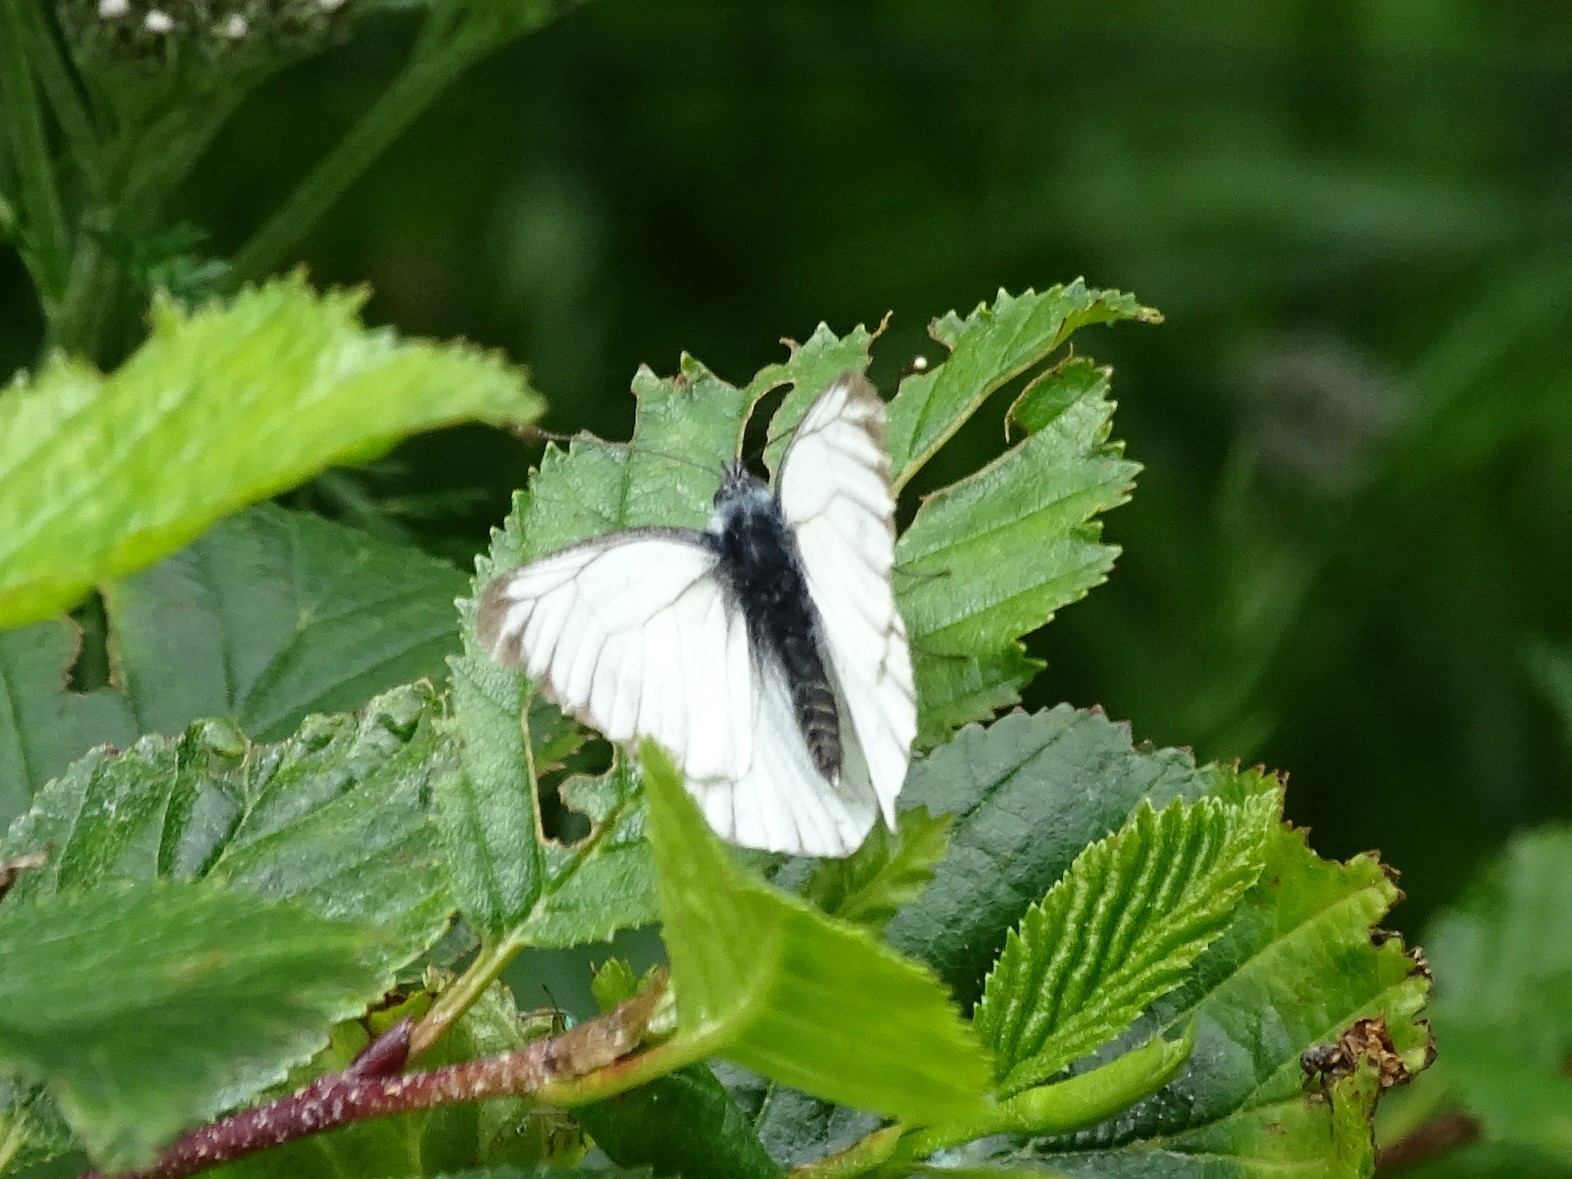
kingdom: Animalia
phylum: Arthropoda
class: Insecta
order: Lepidoptera
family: Pieridae
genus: Pieris
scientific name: Pieris napi
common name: Green-veined white
